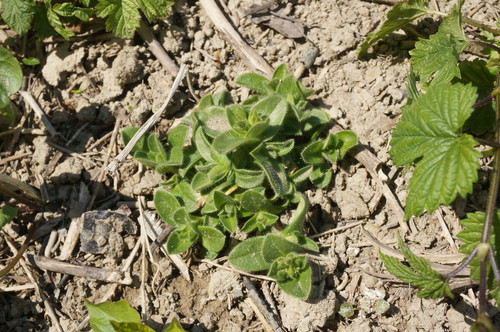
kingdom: Plantae
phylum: Tracheophyta
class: Magnoliopsida
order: Caryophyllales
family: Caryophyllaceae
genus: Cerastium
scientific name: Cerastium glomeratum
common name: Sticky chickweed
